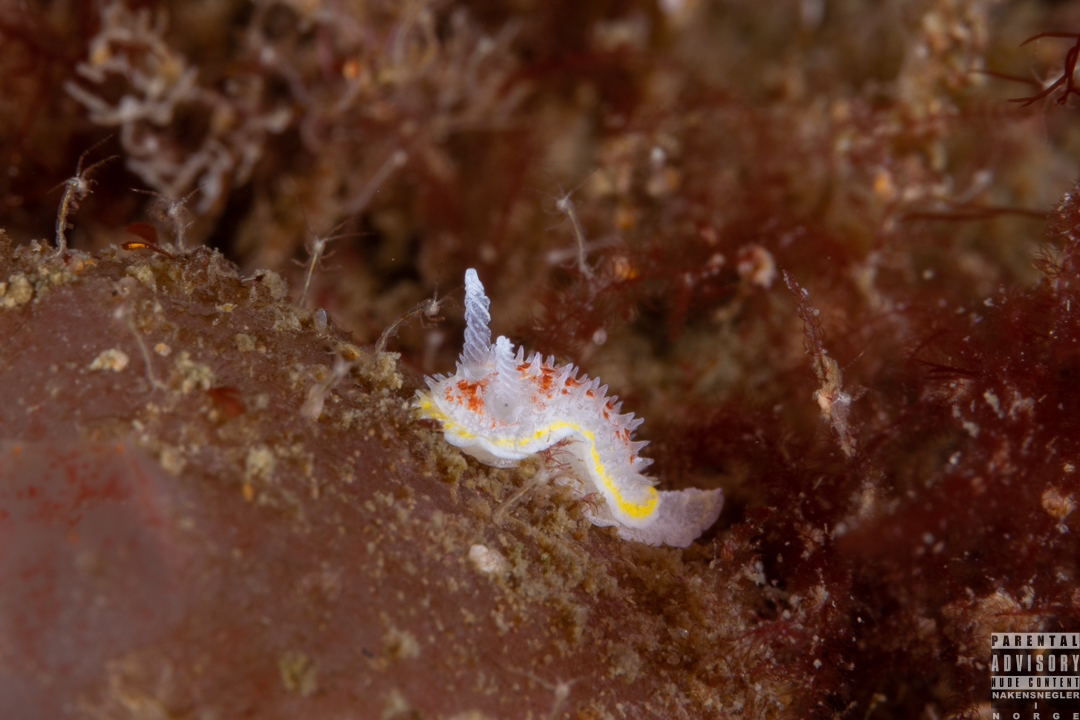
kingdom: Animalia
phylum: Mollusca
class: Gastropoda
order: Nudibranchia
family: Calycidorididae
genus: Diaphorodoris
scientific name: Diaphorodoris luteocincta
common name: Fried egg nudibranch
